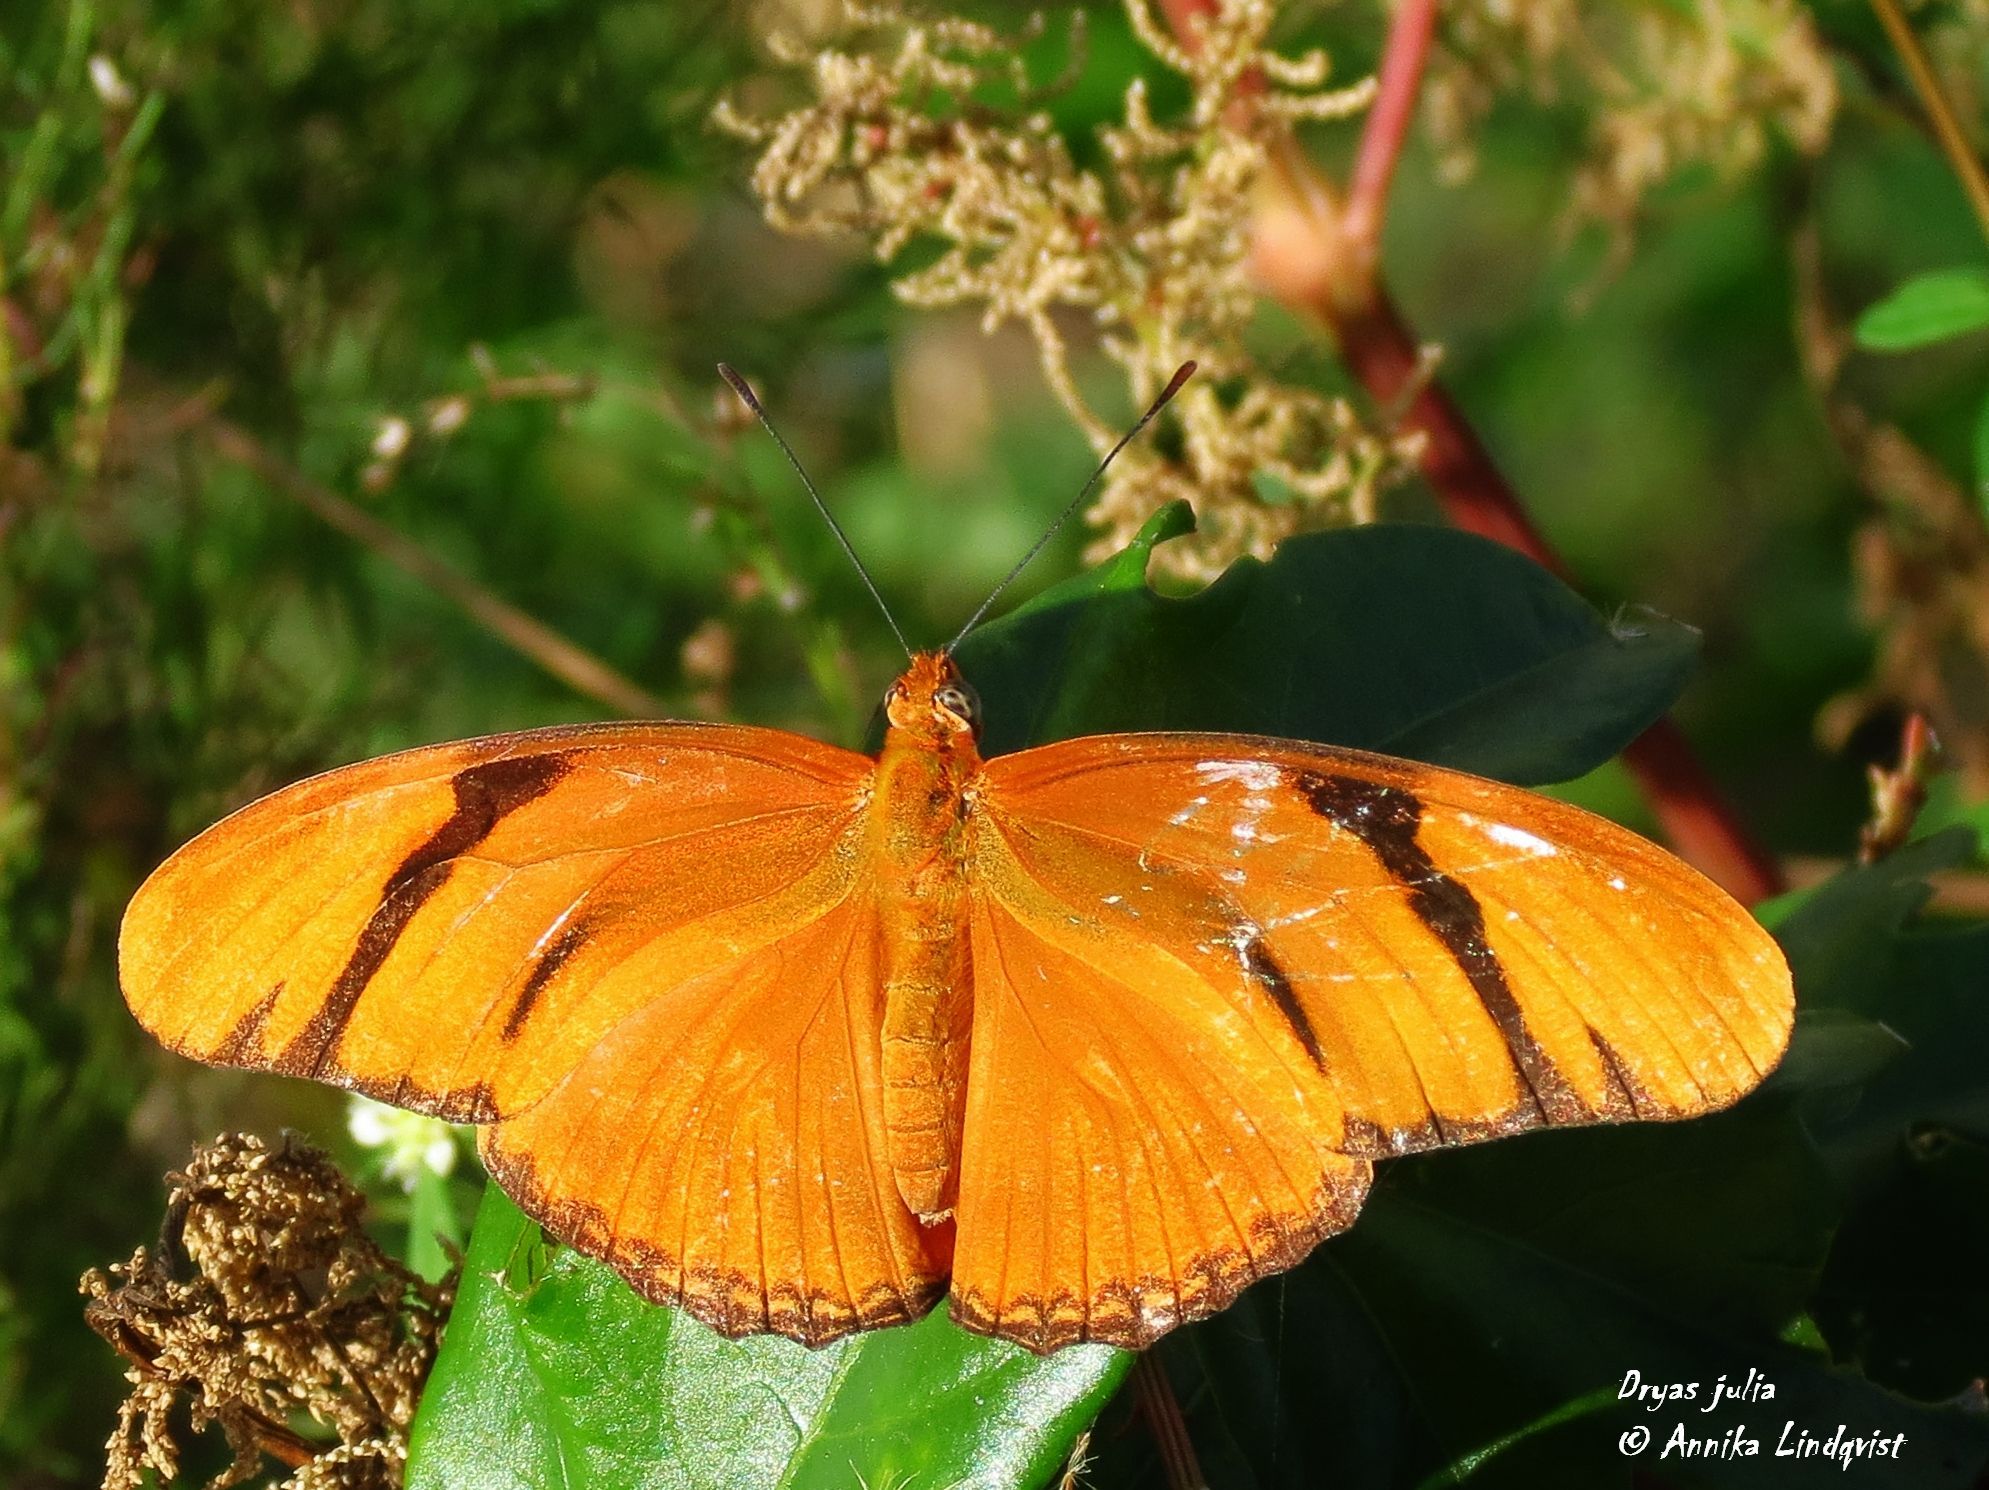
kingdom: Animalia
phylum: Arthropoda
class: Insecta
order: Lepidoptera
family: Nymphalidae
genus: Dryas
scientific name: Dryas iulia
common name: Flambeau
